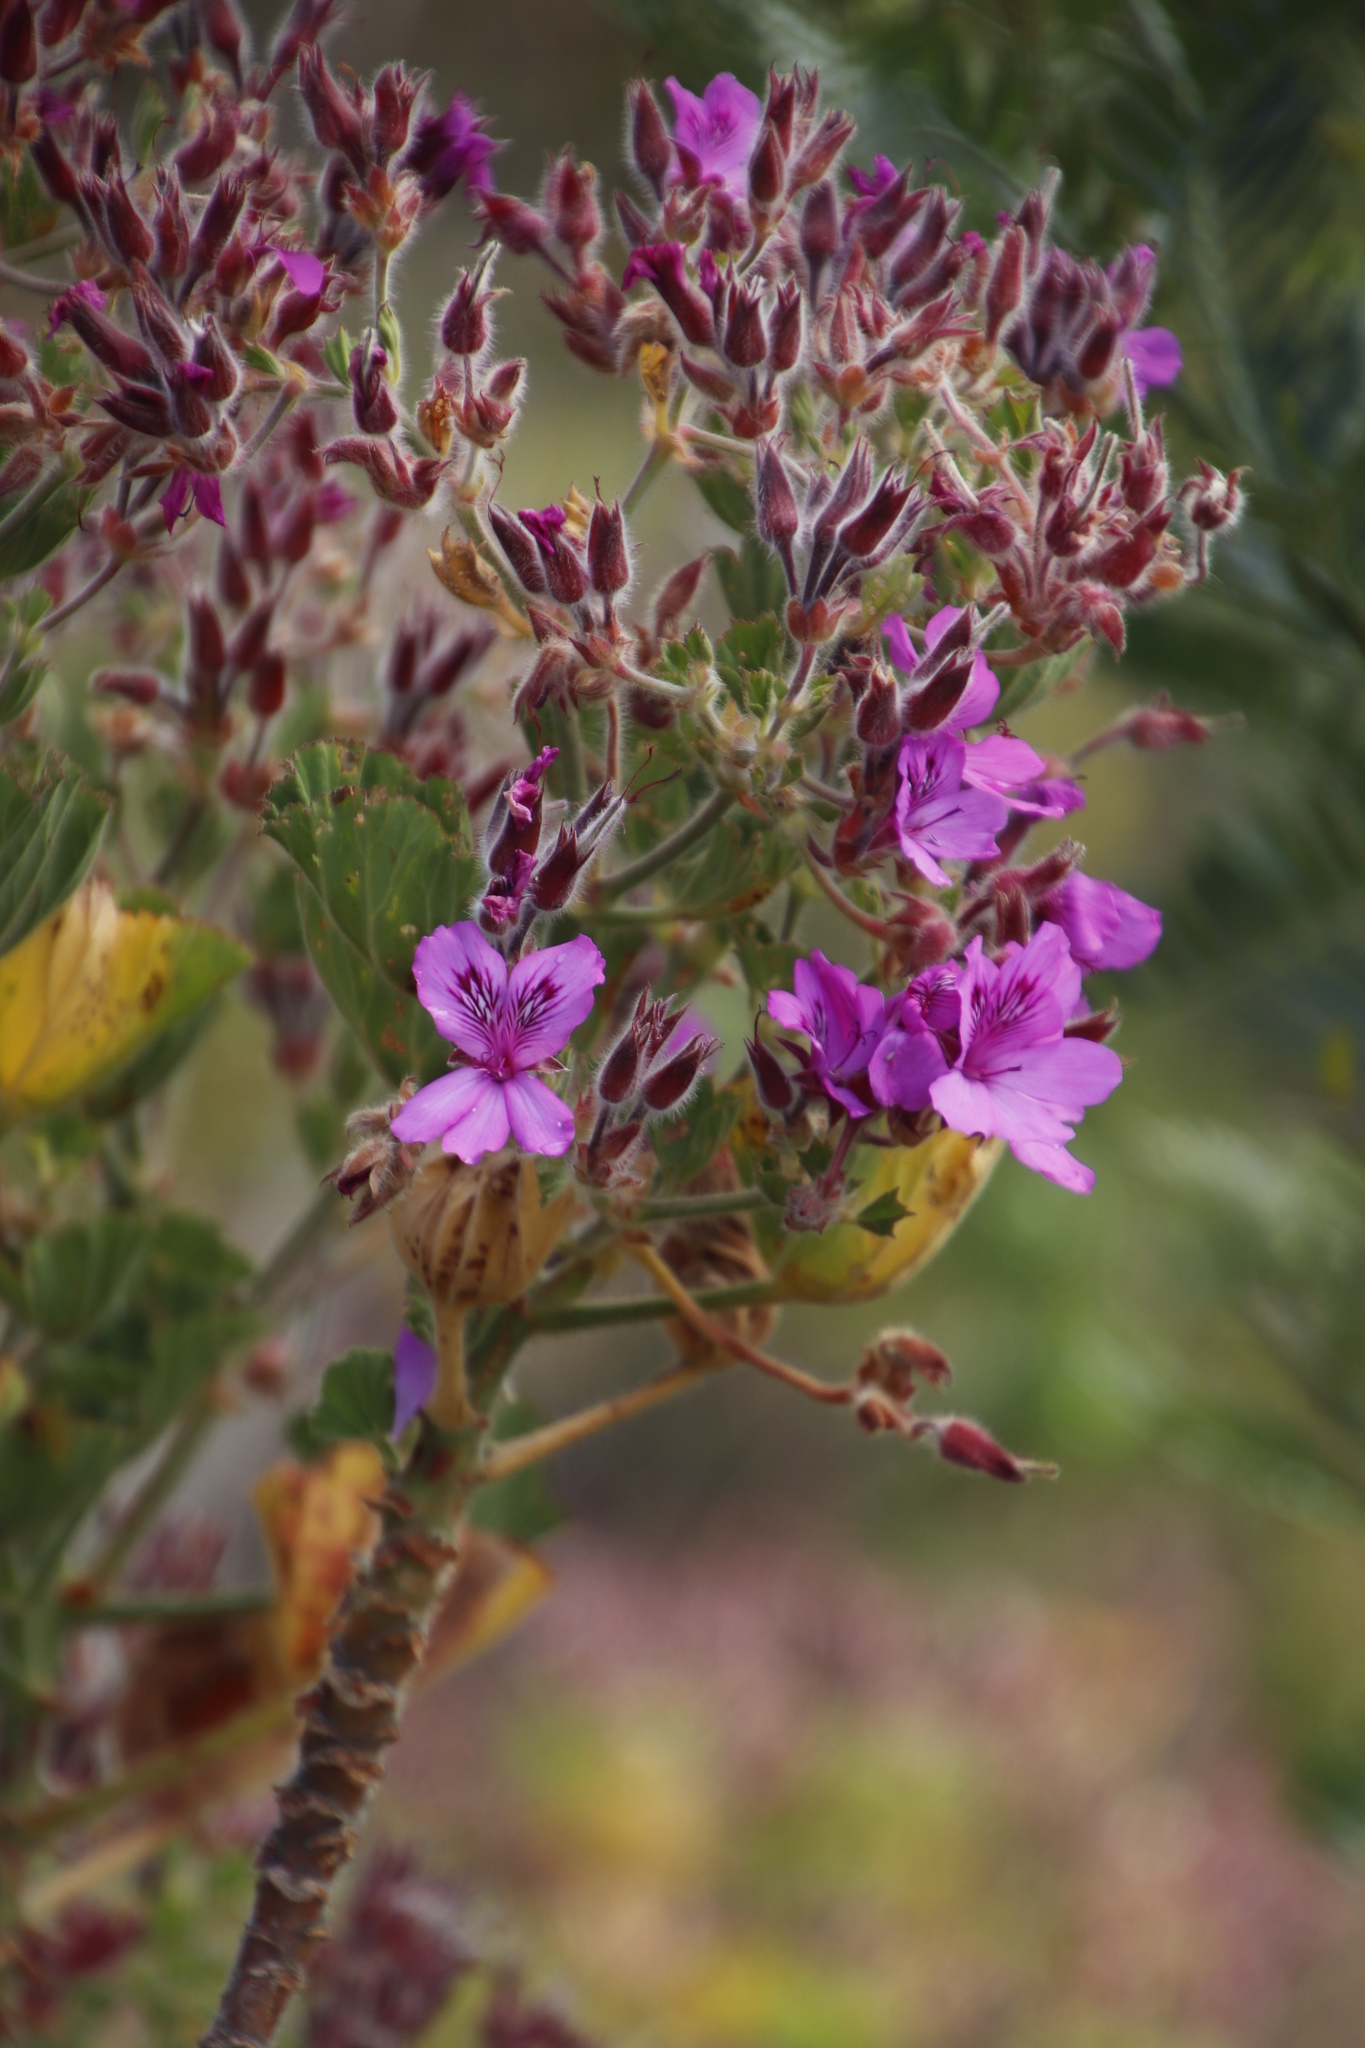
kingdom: Plantae
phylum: Tracheophyta
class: Magnoliopsida
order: Geraniales
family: Geraniaceae
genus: Pelargonium
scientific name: Pelargonium cucullatum
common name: Tree pelargonium
